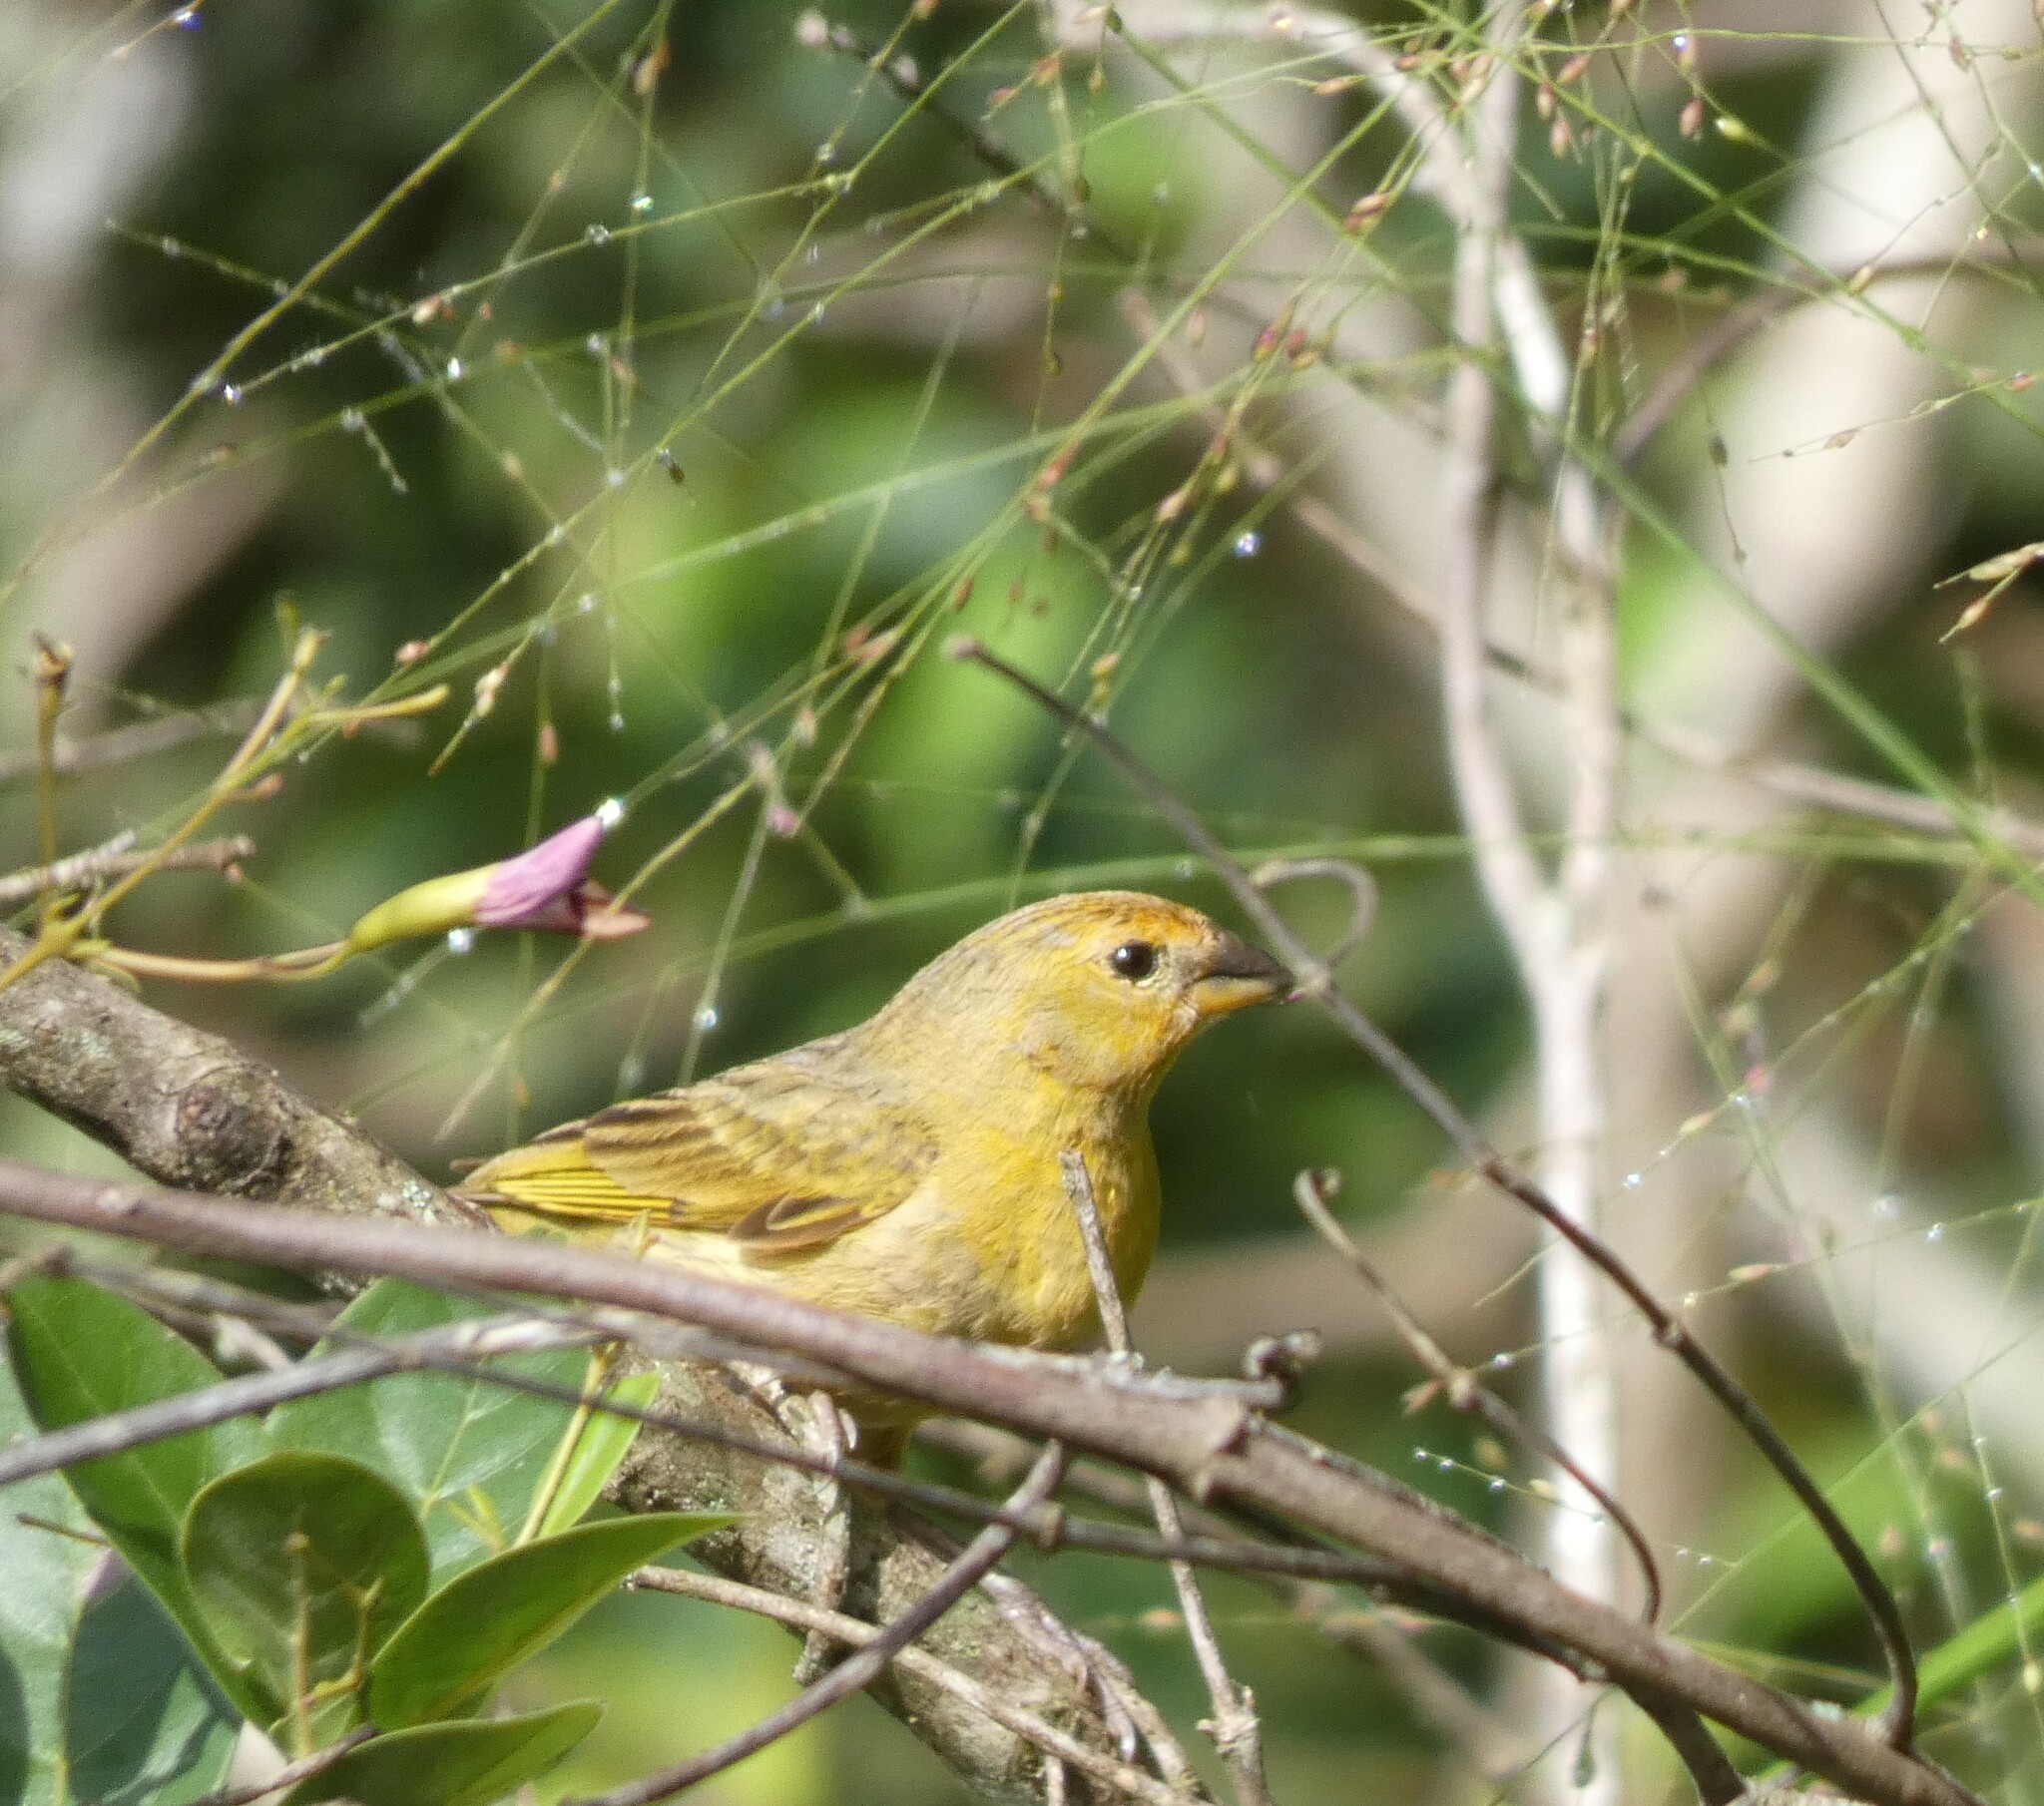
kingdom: Animalia
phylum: Chordata
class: Aves
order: Passeriformes
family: Thraupidae
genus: Sicalis
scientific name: Sicalis flaveola
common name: Saffron finch
